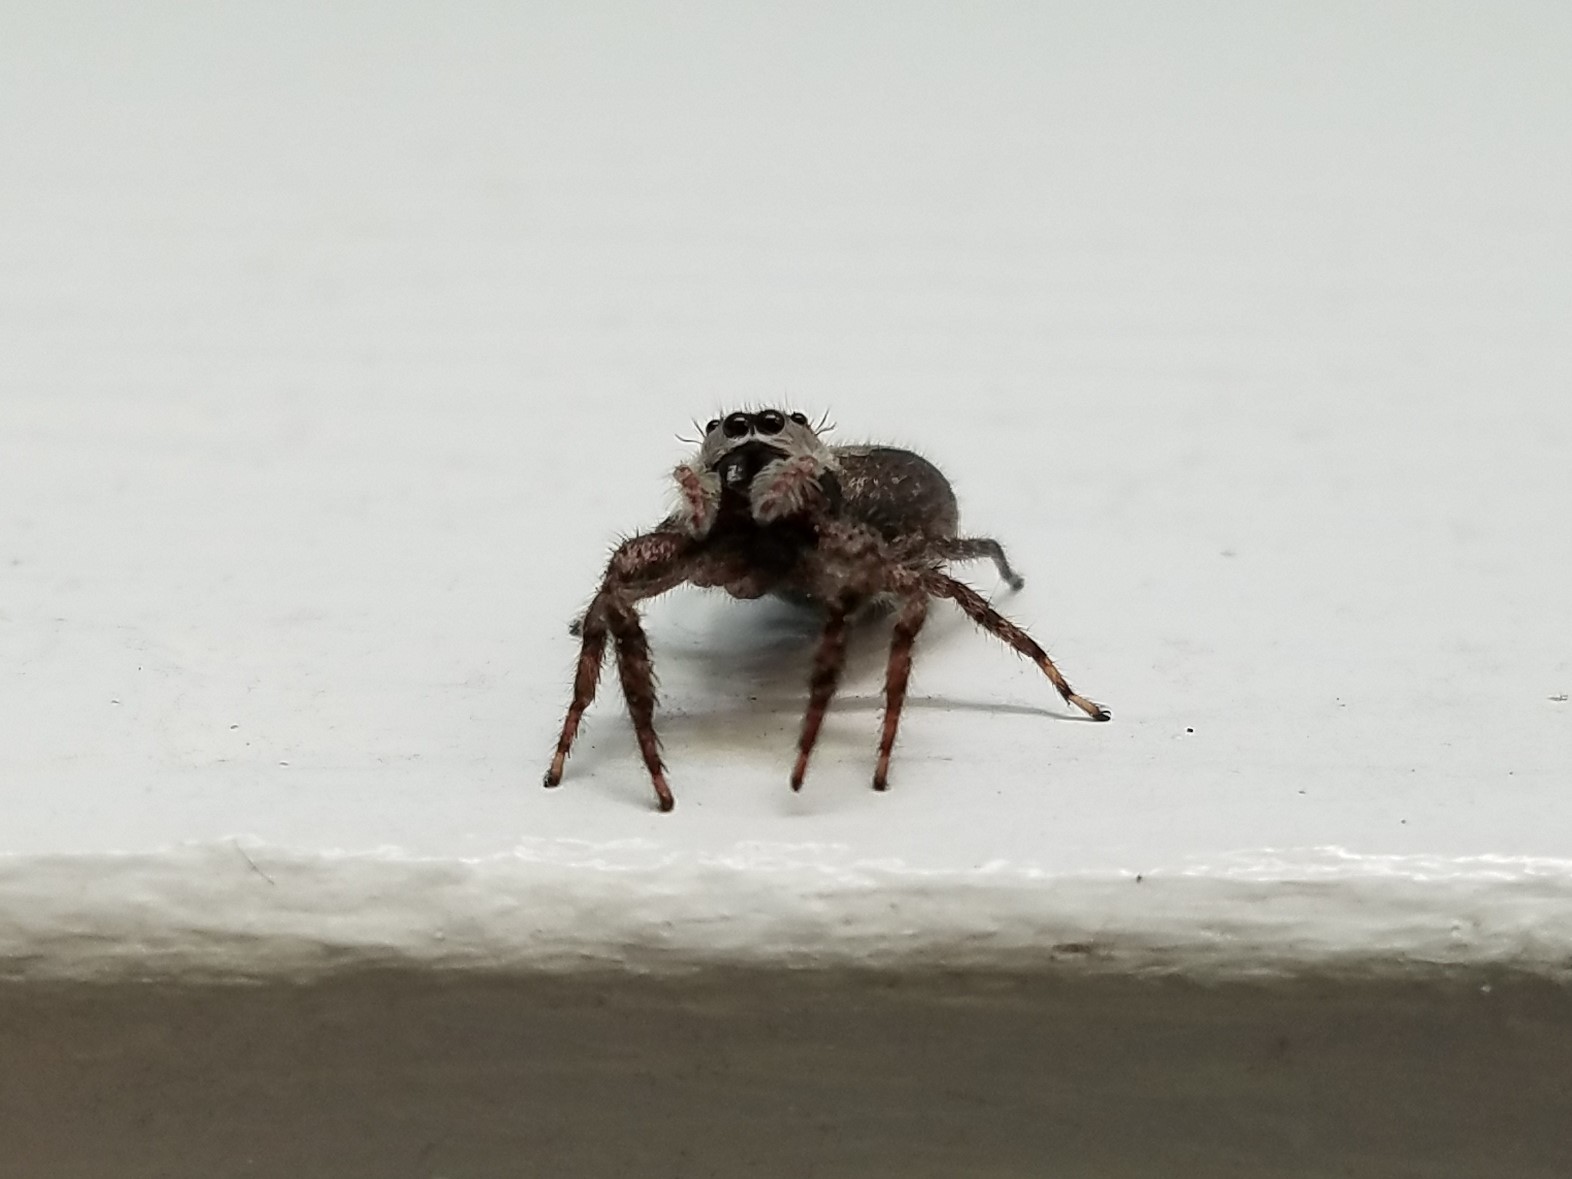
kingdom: Animalia
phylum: Arthropoda
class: Arachnida
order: Araneae
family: Salticidae
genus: Platycryptus
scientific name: Platycryptus undatus
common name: Tan jumping spider
